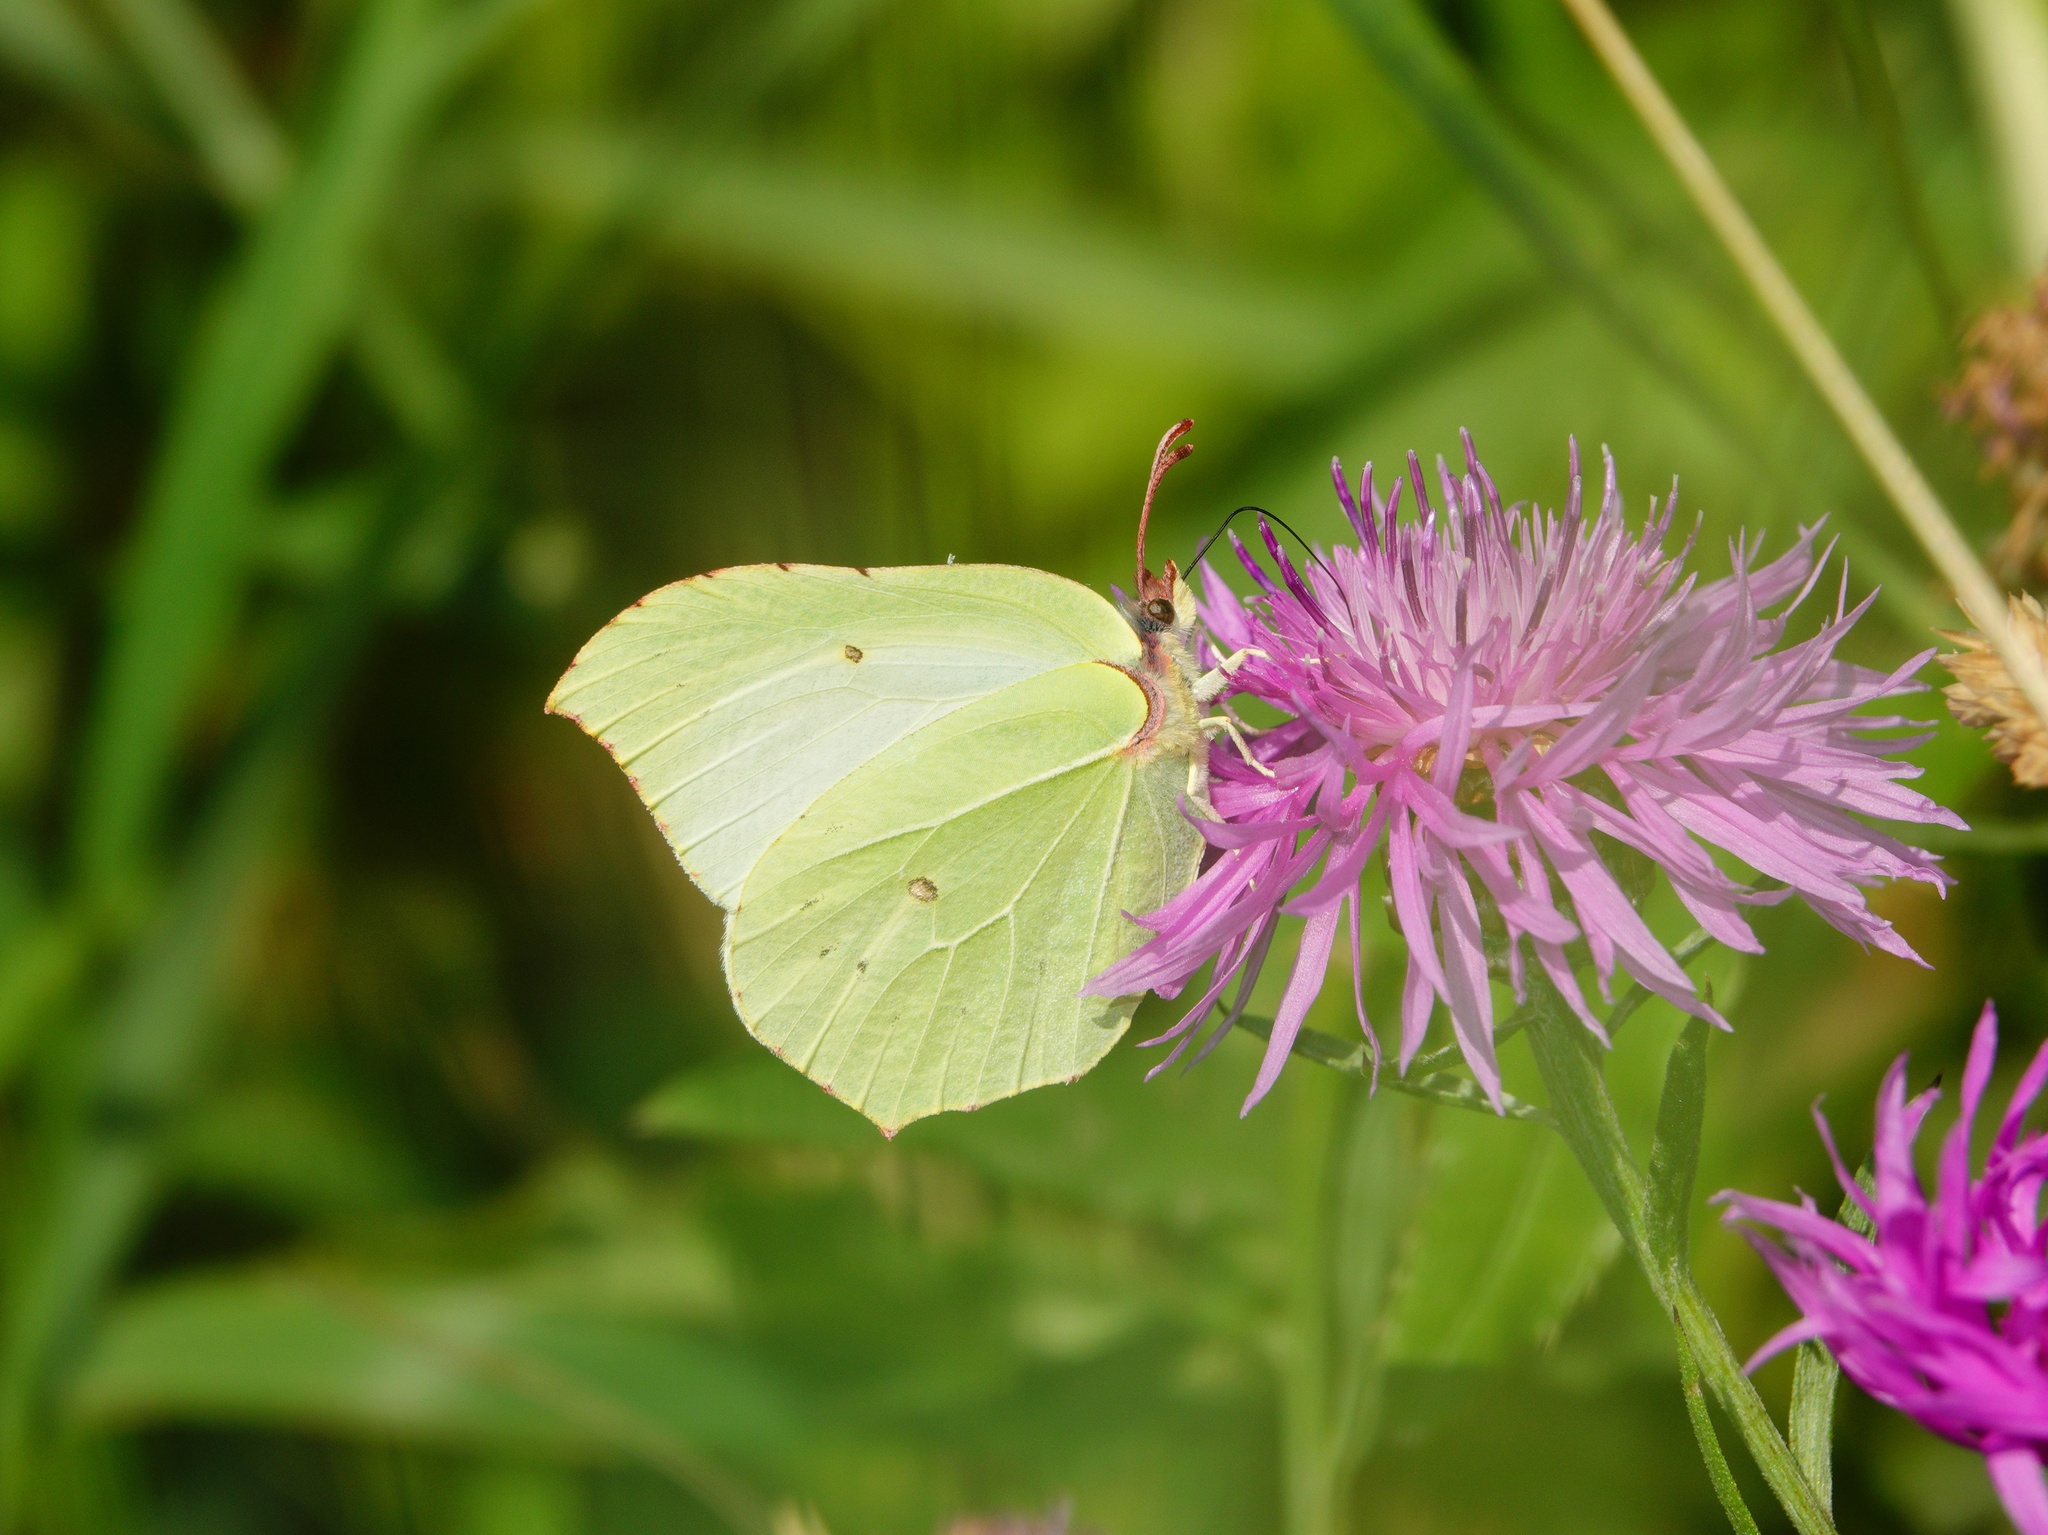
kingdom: Animalia
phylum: Arthropoda
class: Insecta
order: Lepidoptera
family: Pieridae
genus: Gonepteryx
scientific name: Gonepteryx rhamni
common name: Brimstone
